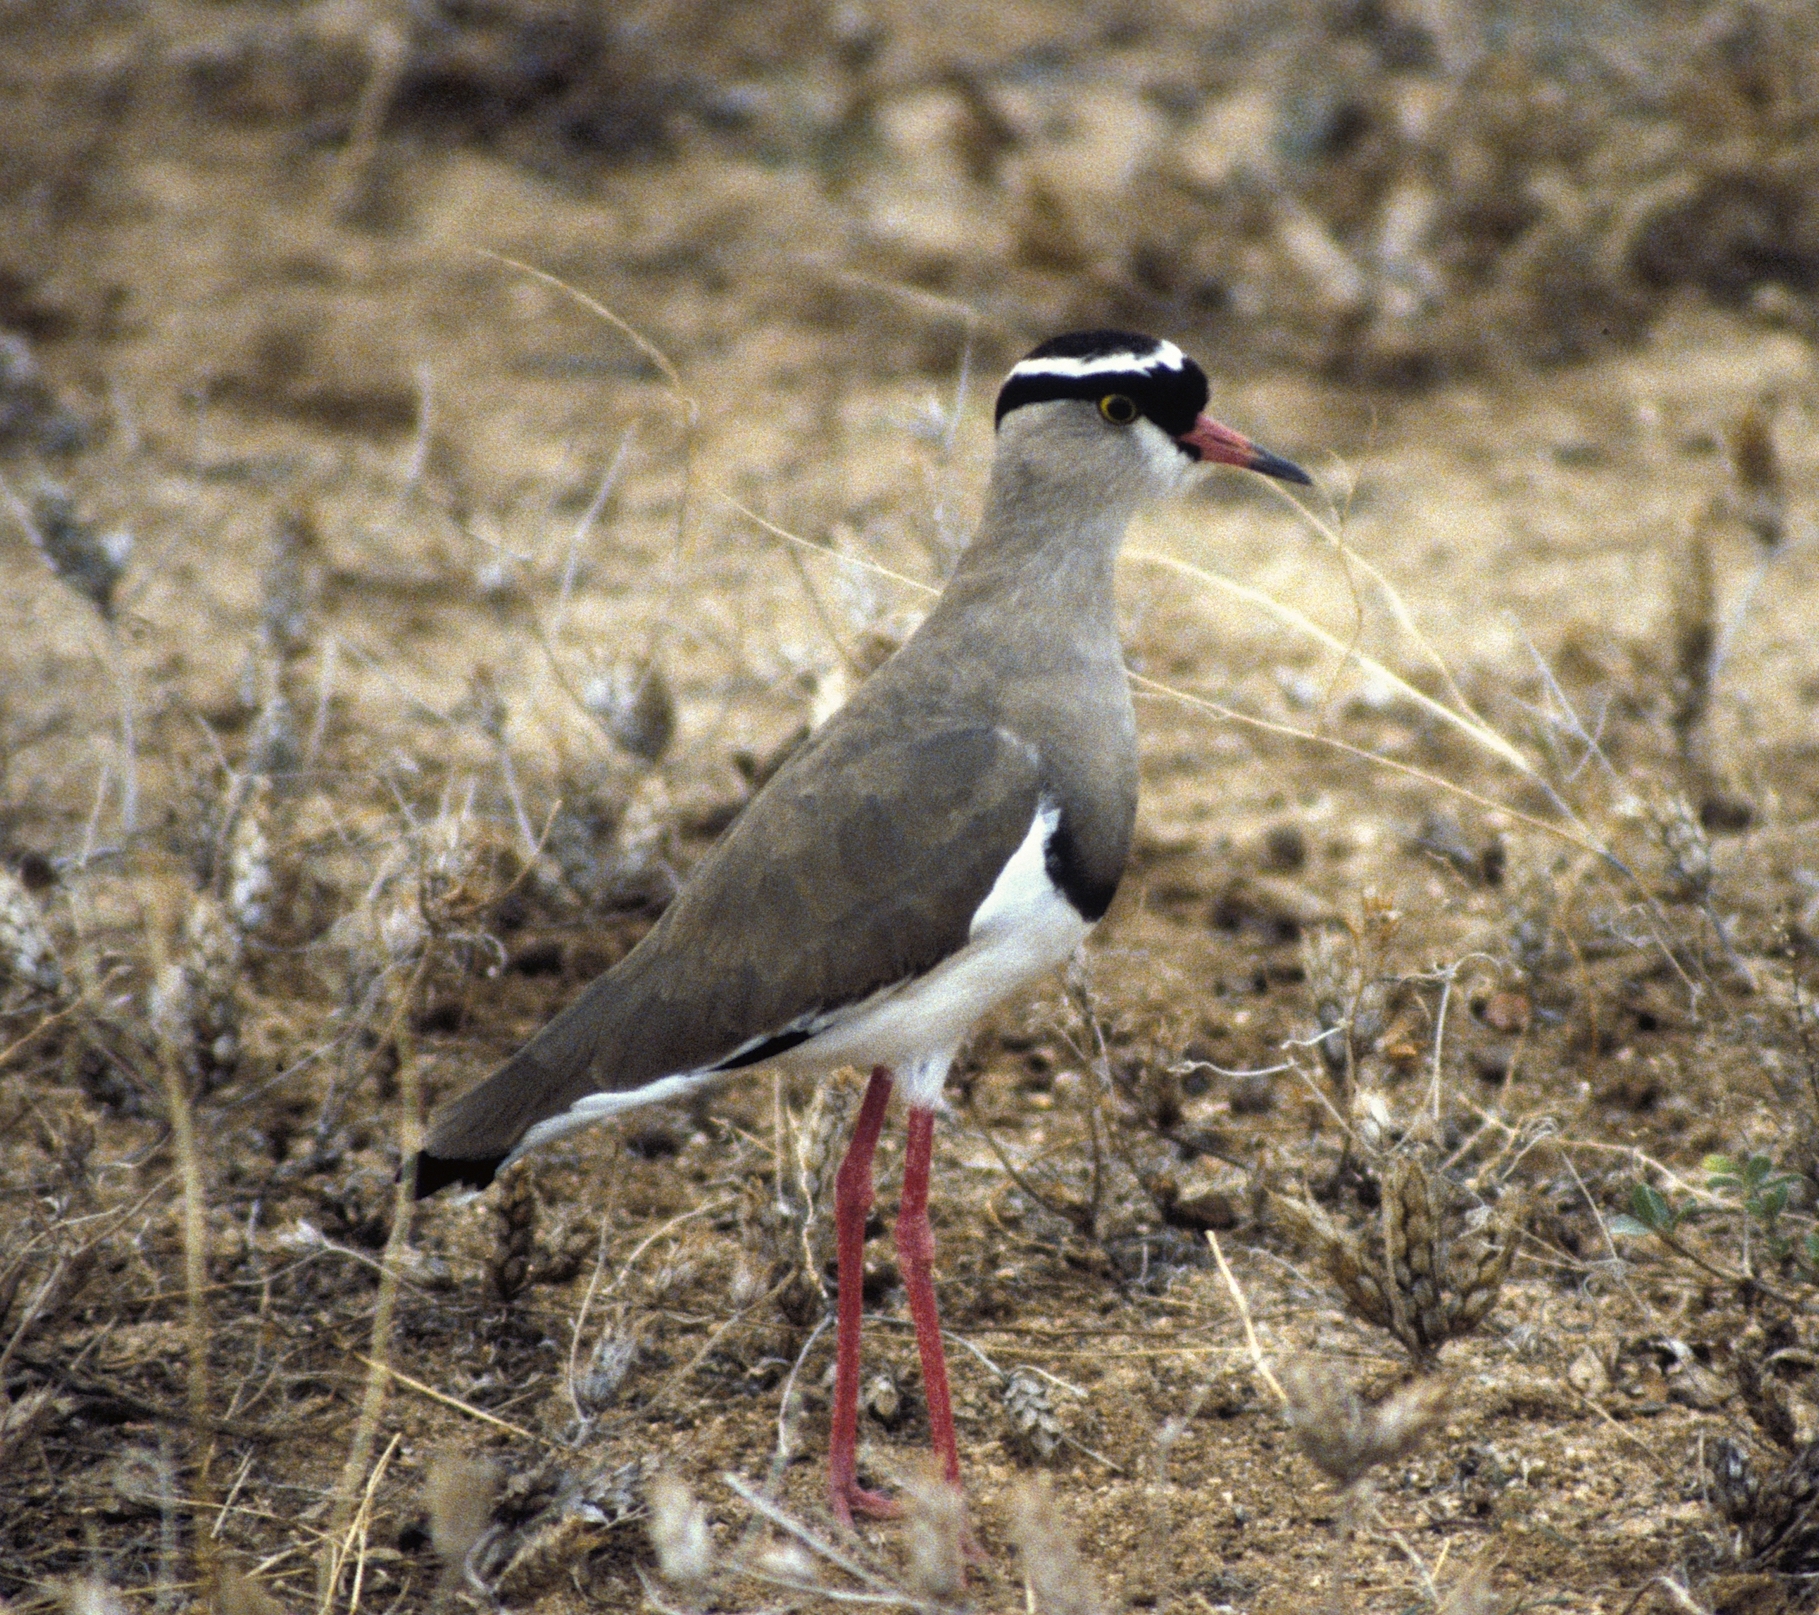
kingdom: Animalia
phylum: Chordata
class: Aves
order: Charadriiformes
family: Charadriidae
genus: Vanellus
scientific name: Vanellus coronatus
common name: Crowned lapwing
